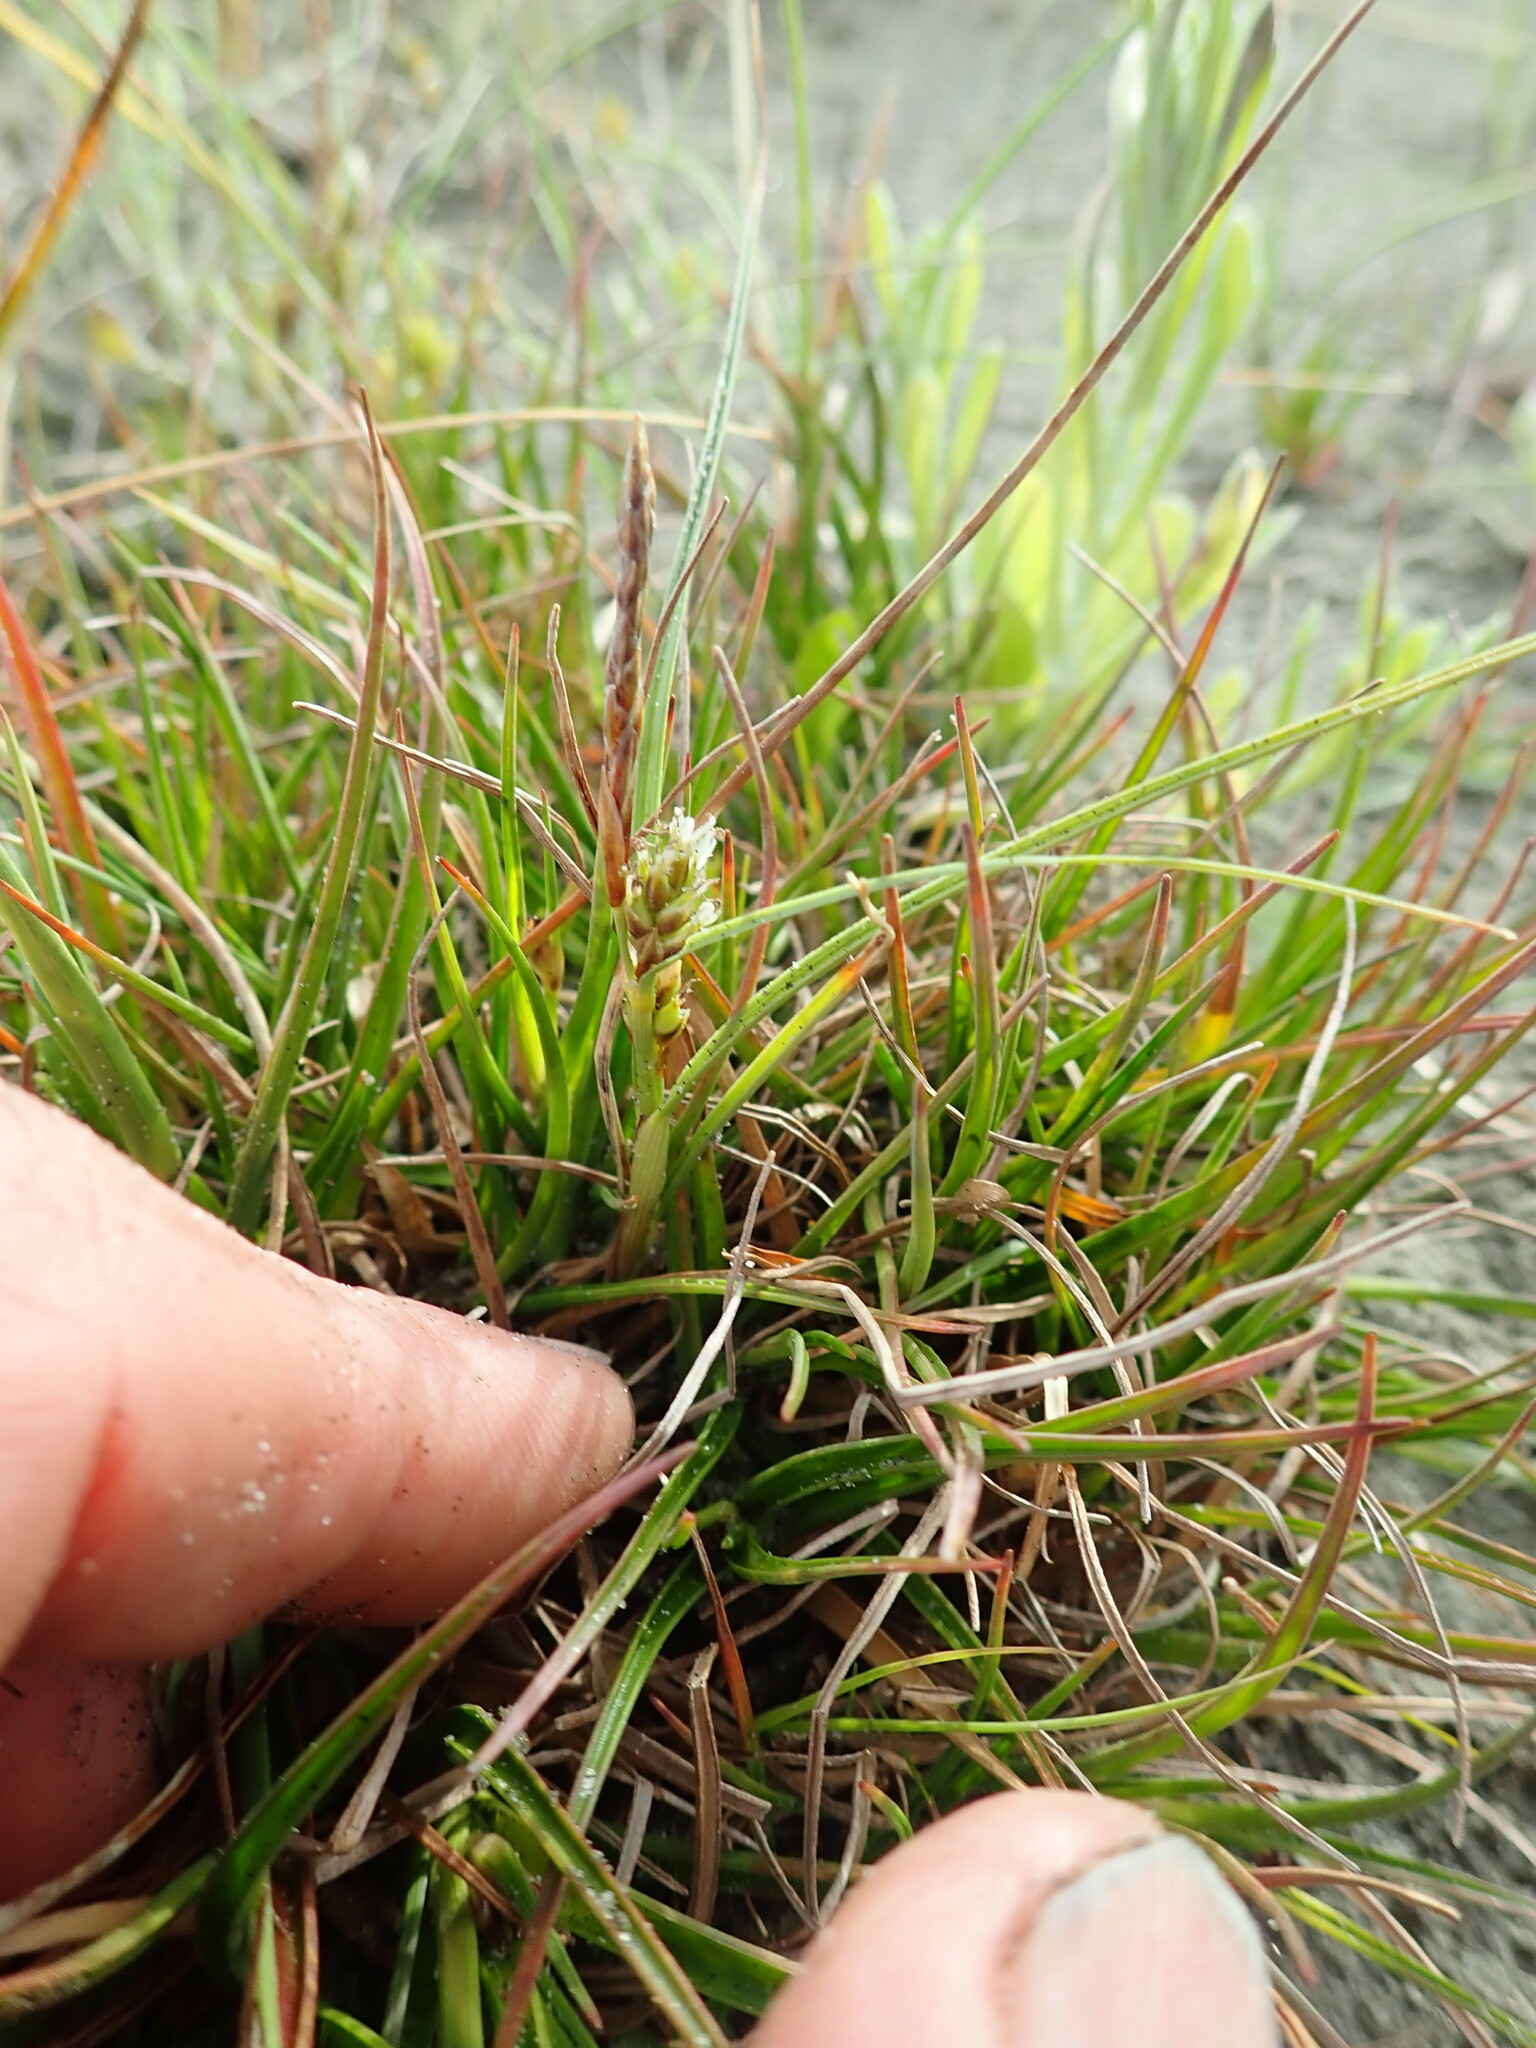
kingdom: Plantae
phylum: Tracheophyta
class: Liliopsida
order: Poales
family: Cyperaceae
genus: Carex
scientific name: Carex pumila
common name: Dwarf sedge
